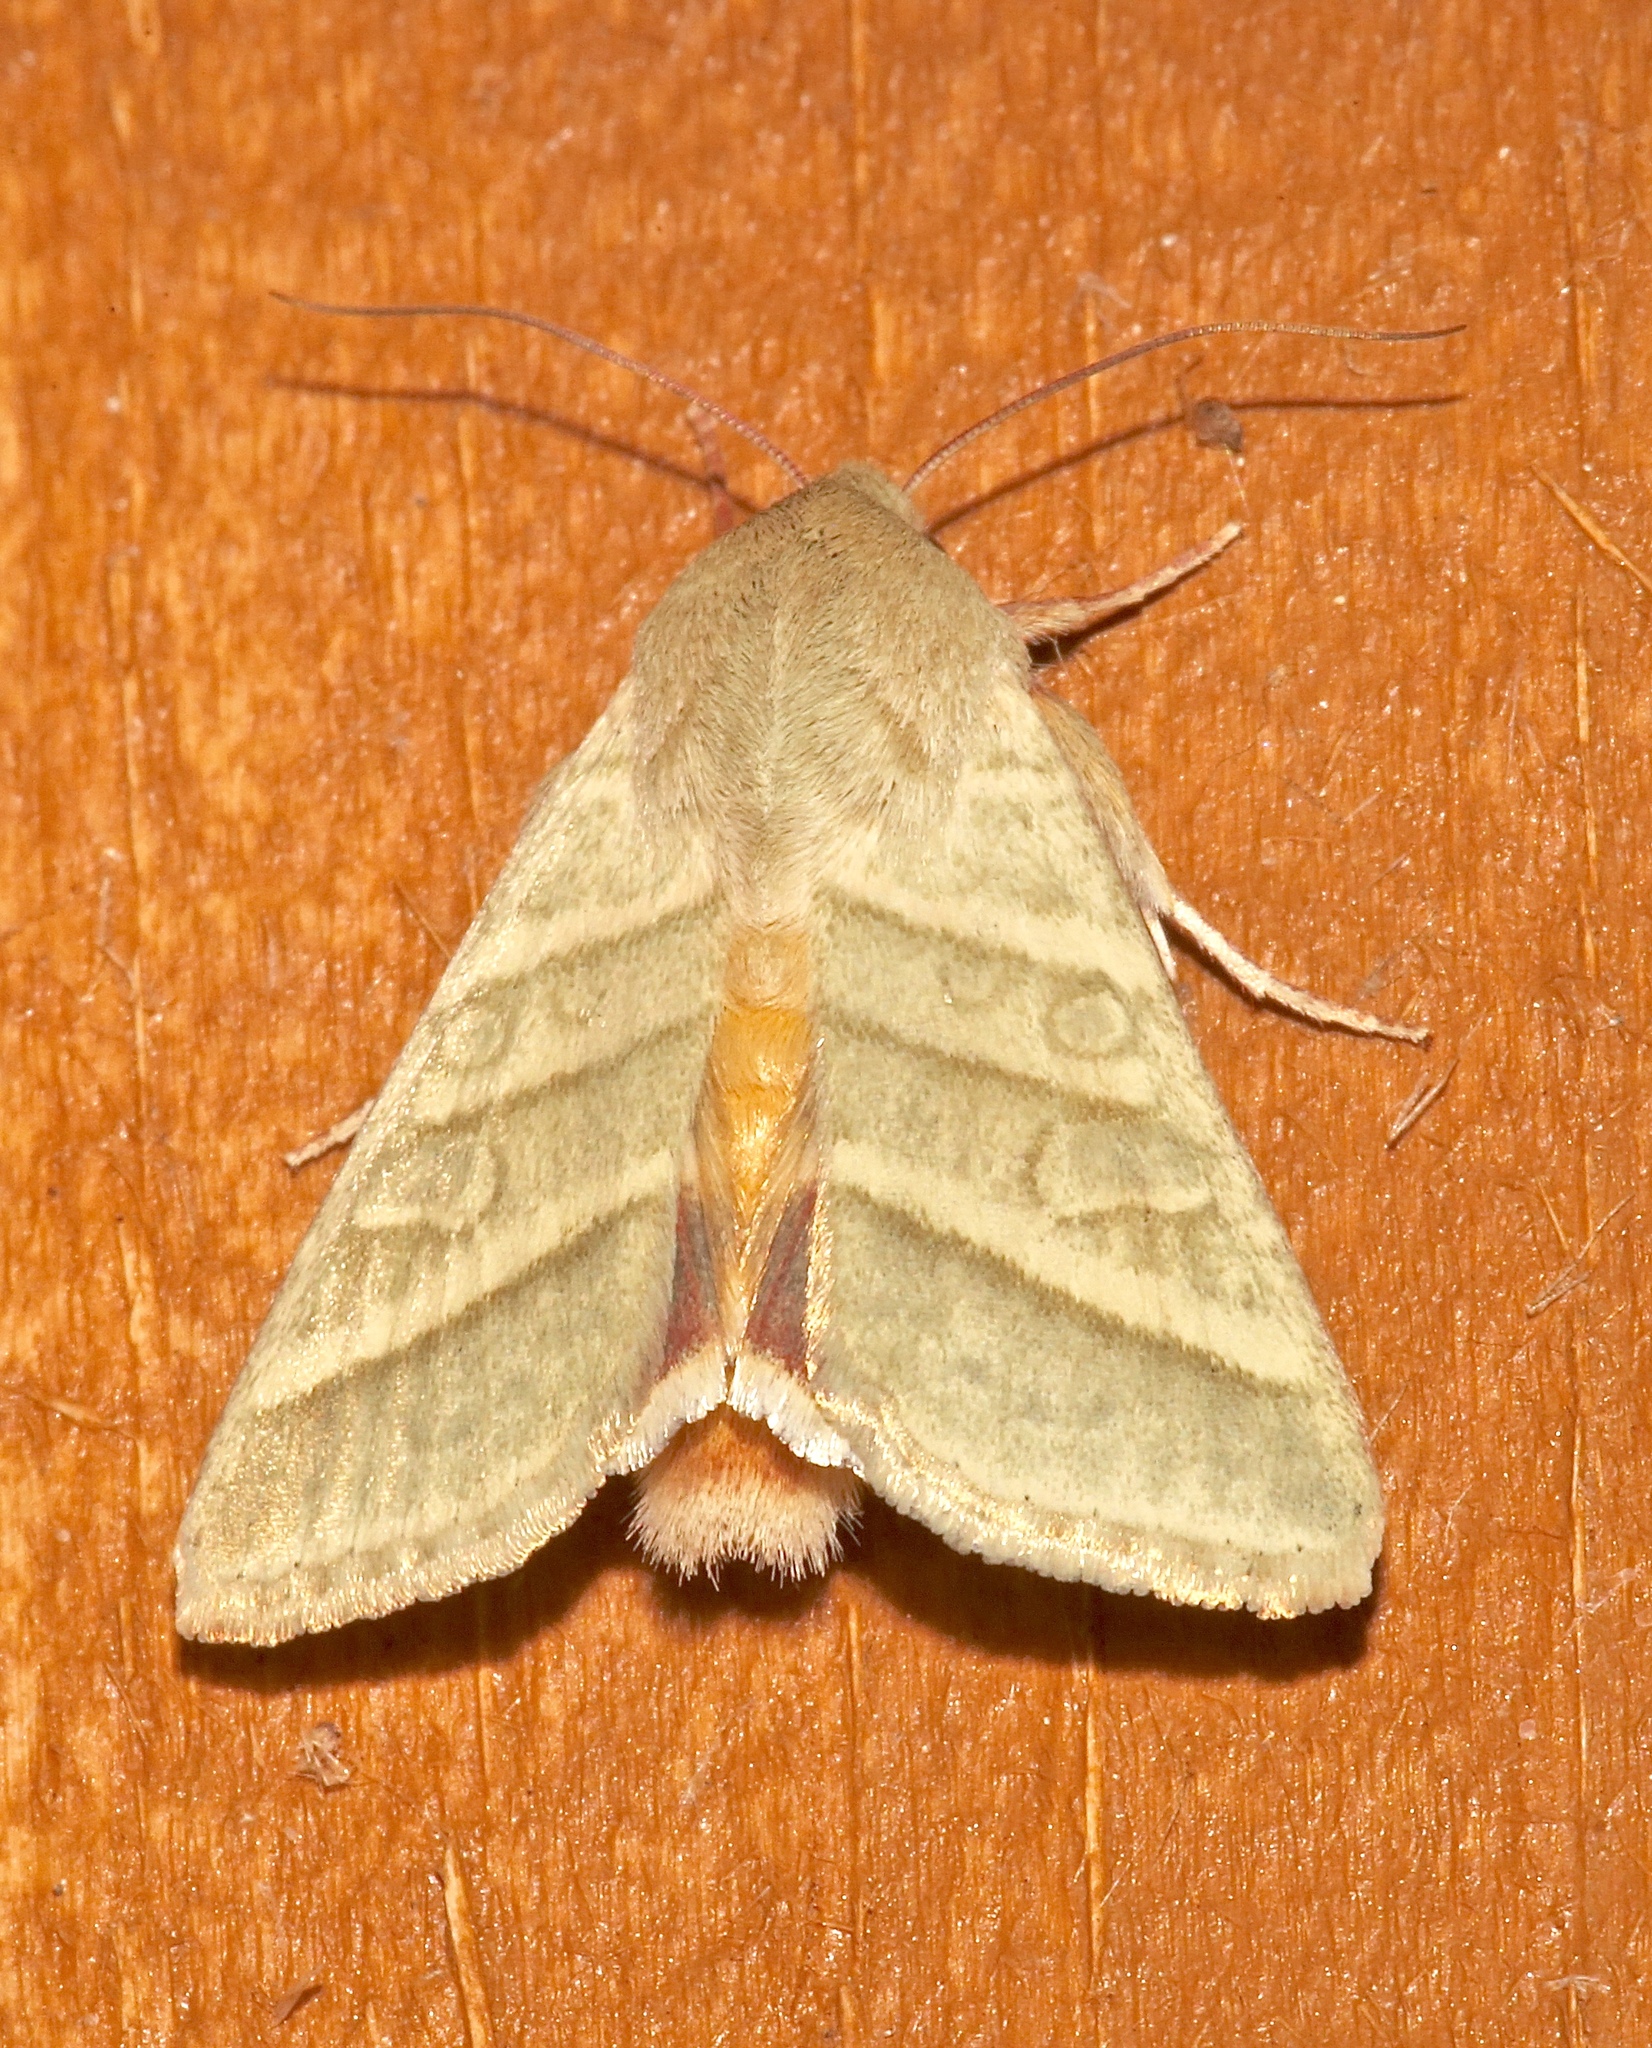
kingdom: Animalia
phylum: Arthropoda
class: Insecta
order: Lepidoptera
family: Noctuidae
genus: Chloridea
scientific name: Chloridea virescens
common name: Tobacco budworm
